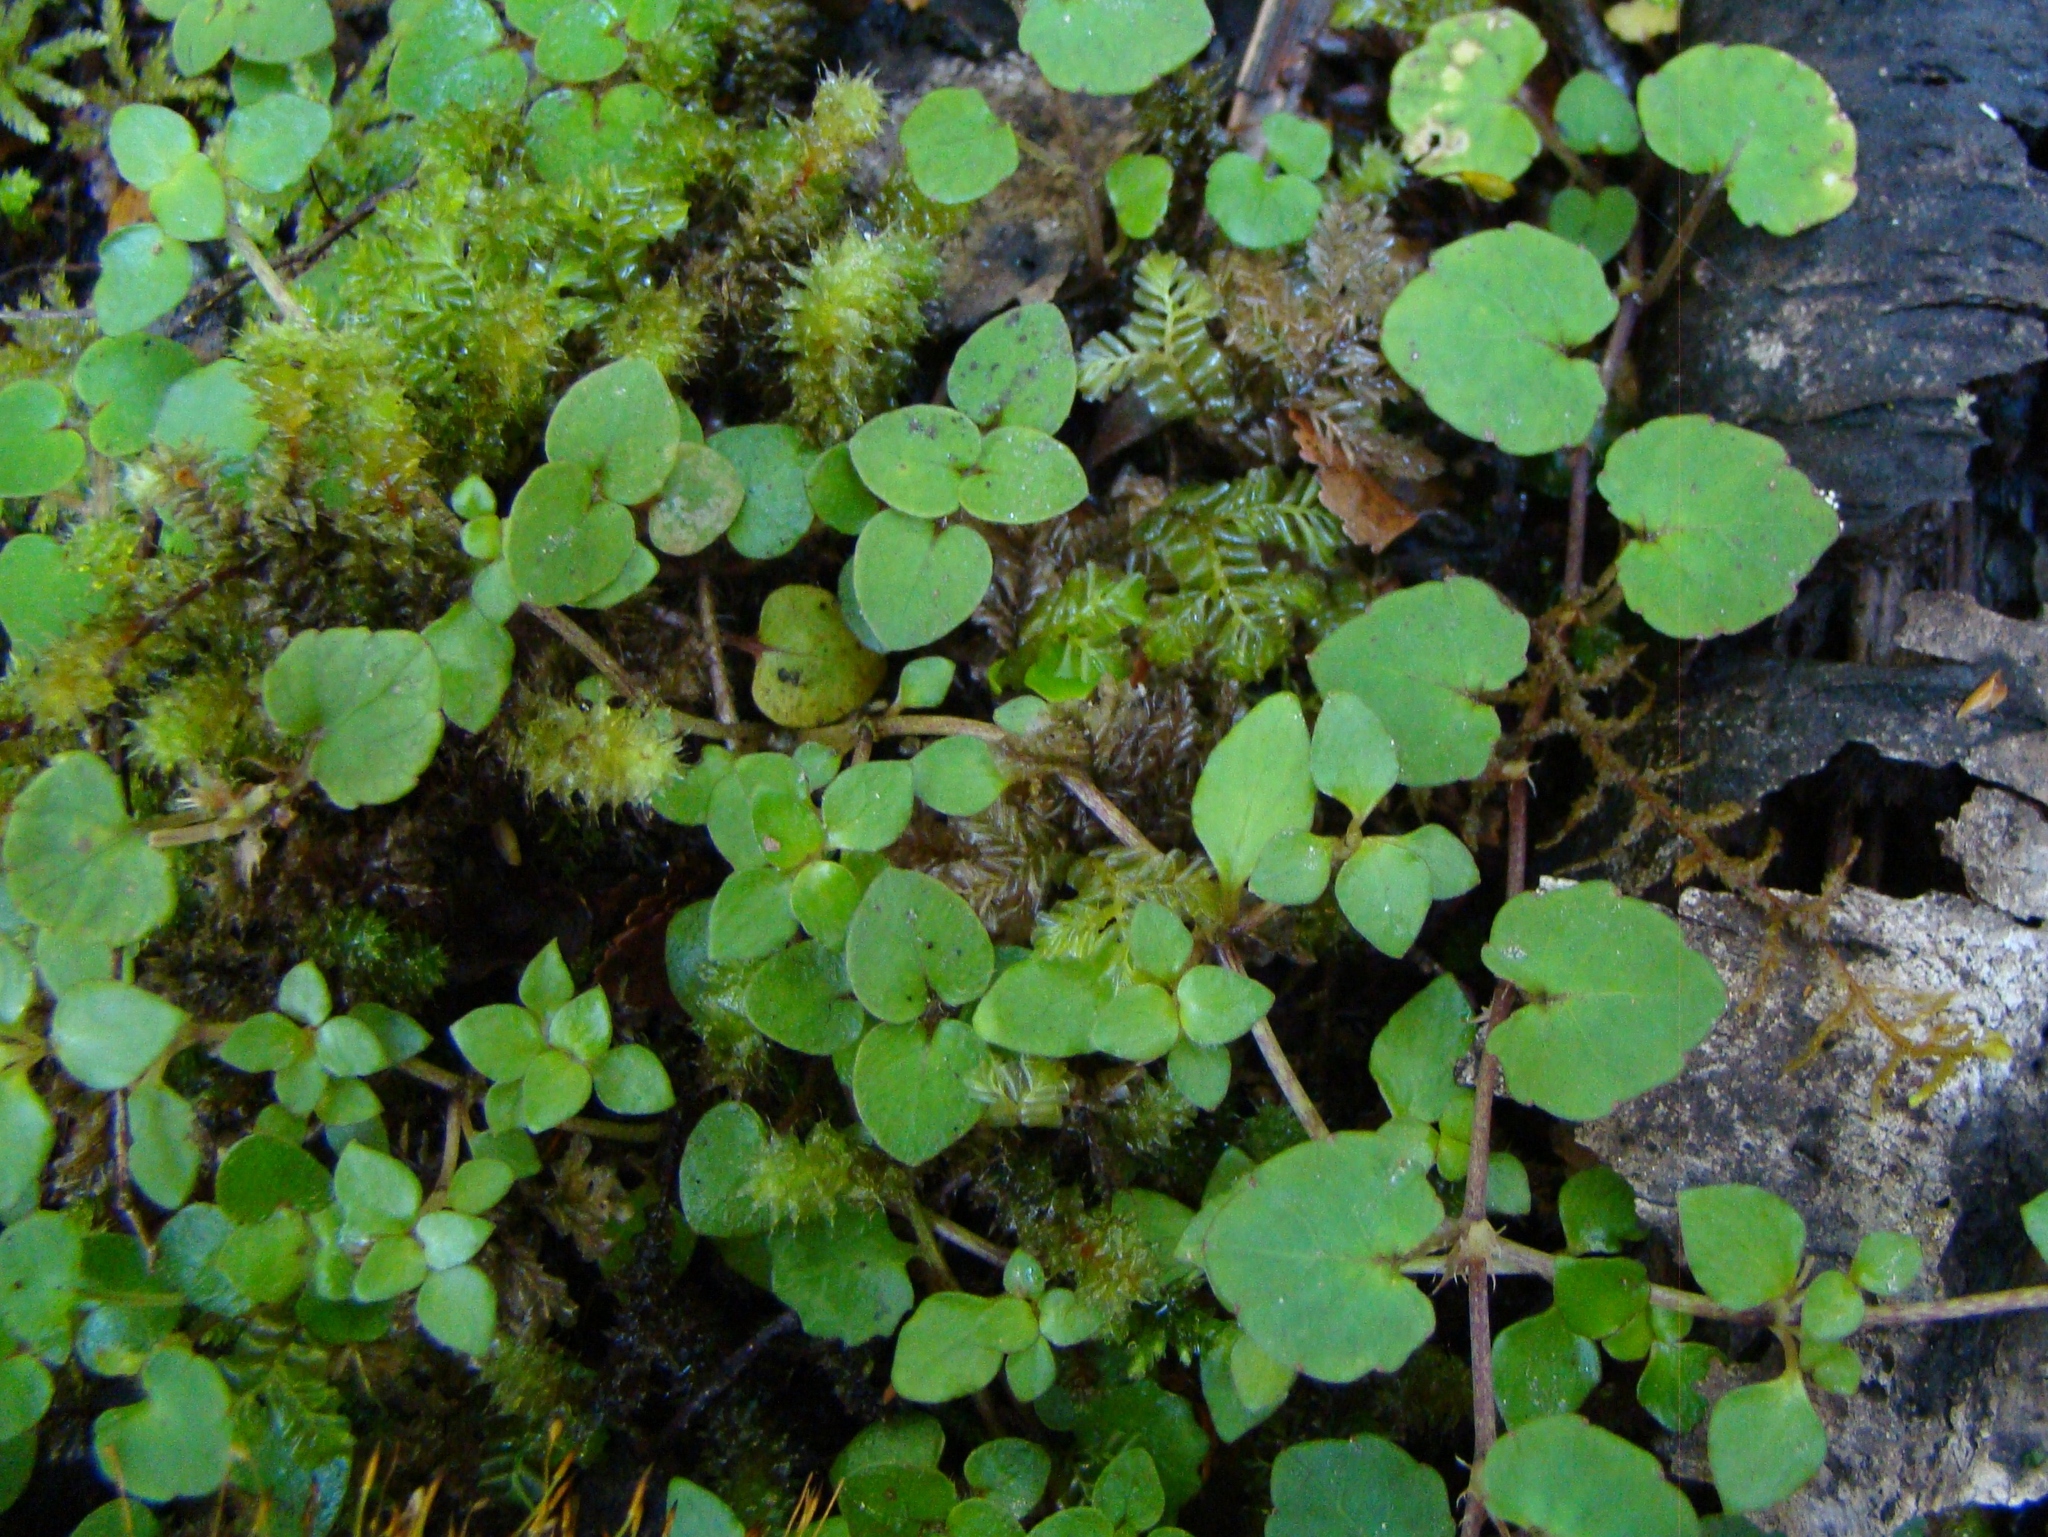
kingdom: Plantae
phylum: Tracheophyta
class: Magnoliopsida
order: Malpighiales
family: Violaceae
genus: Viola
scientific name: Viola filicaulis
